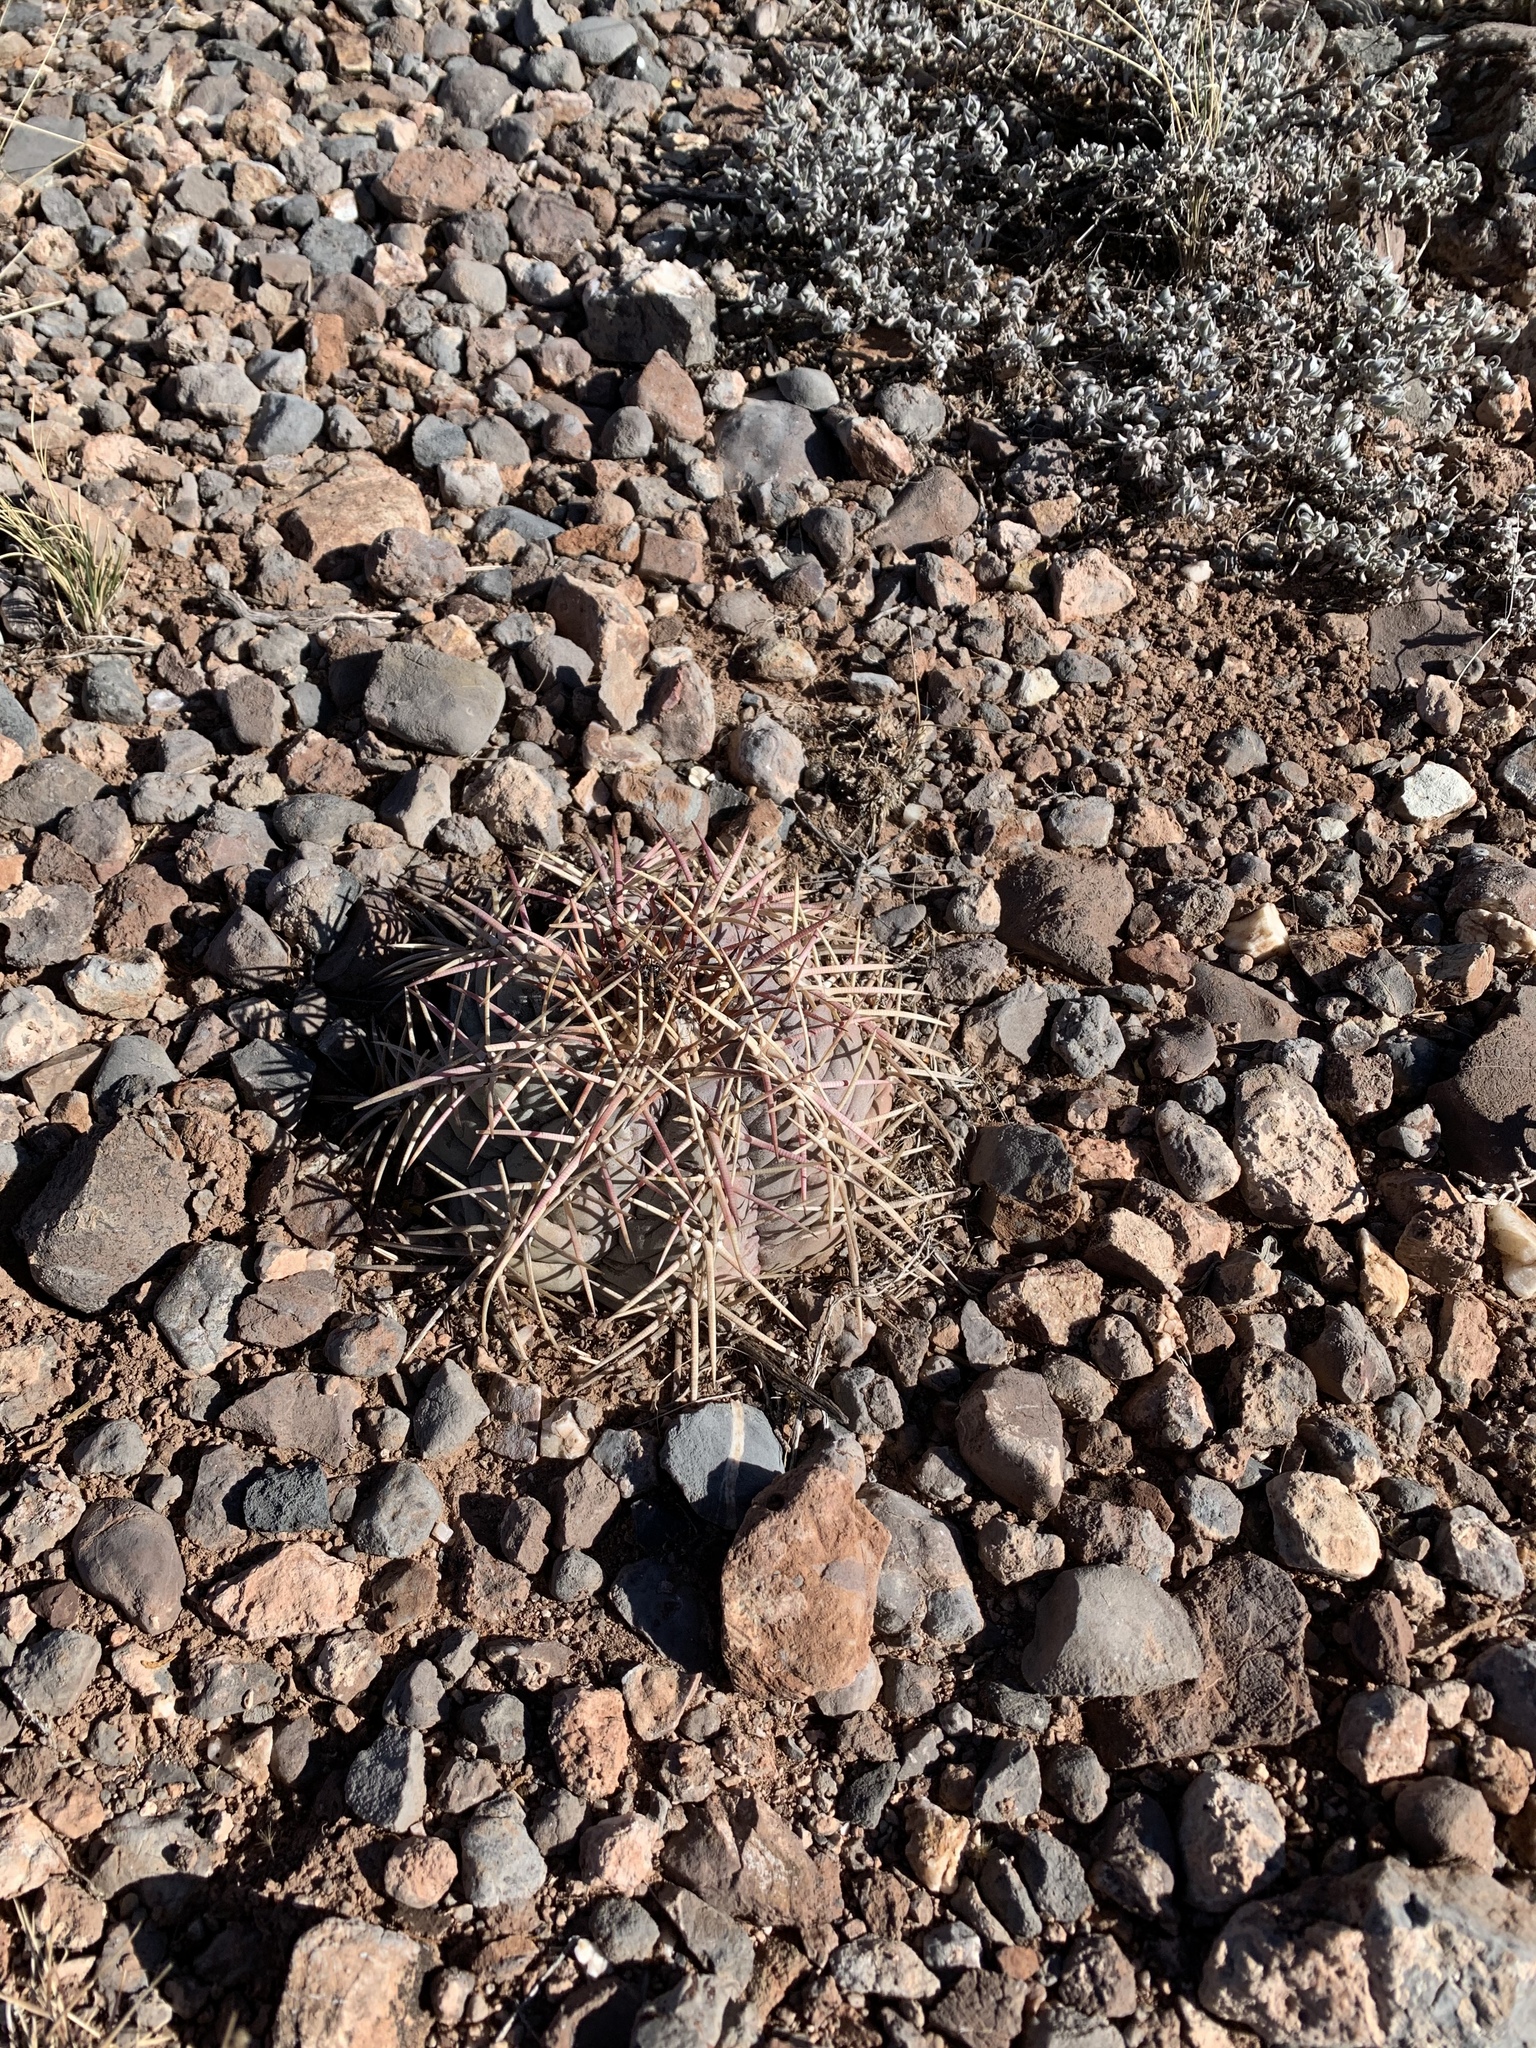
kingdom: Plantae
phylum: Tracheophyta
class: Magnoliopsida
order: Caryophyllales
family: Cactaceae
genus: Echinocactus
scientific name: Echinocactus horizonthalonius
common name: Devilshead
